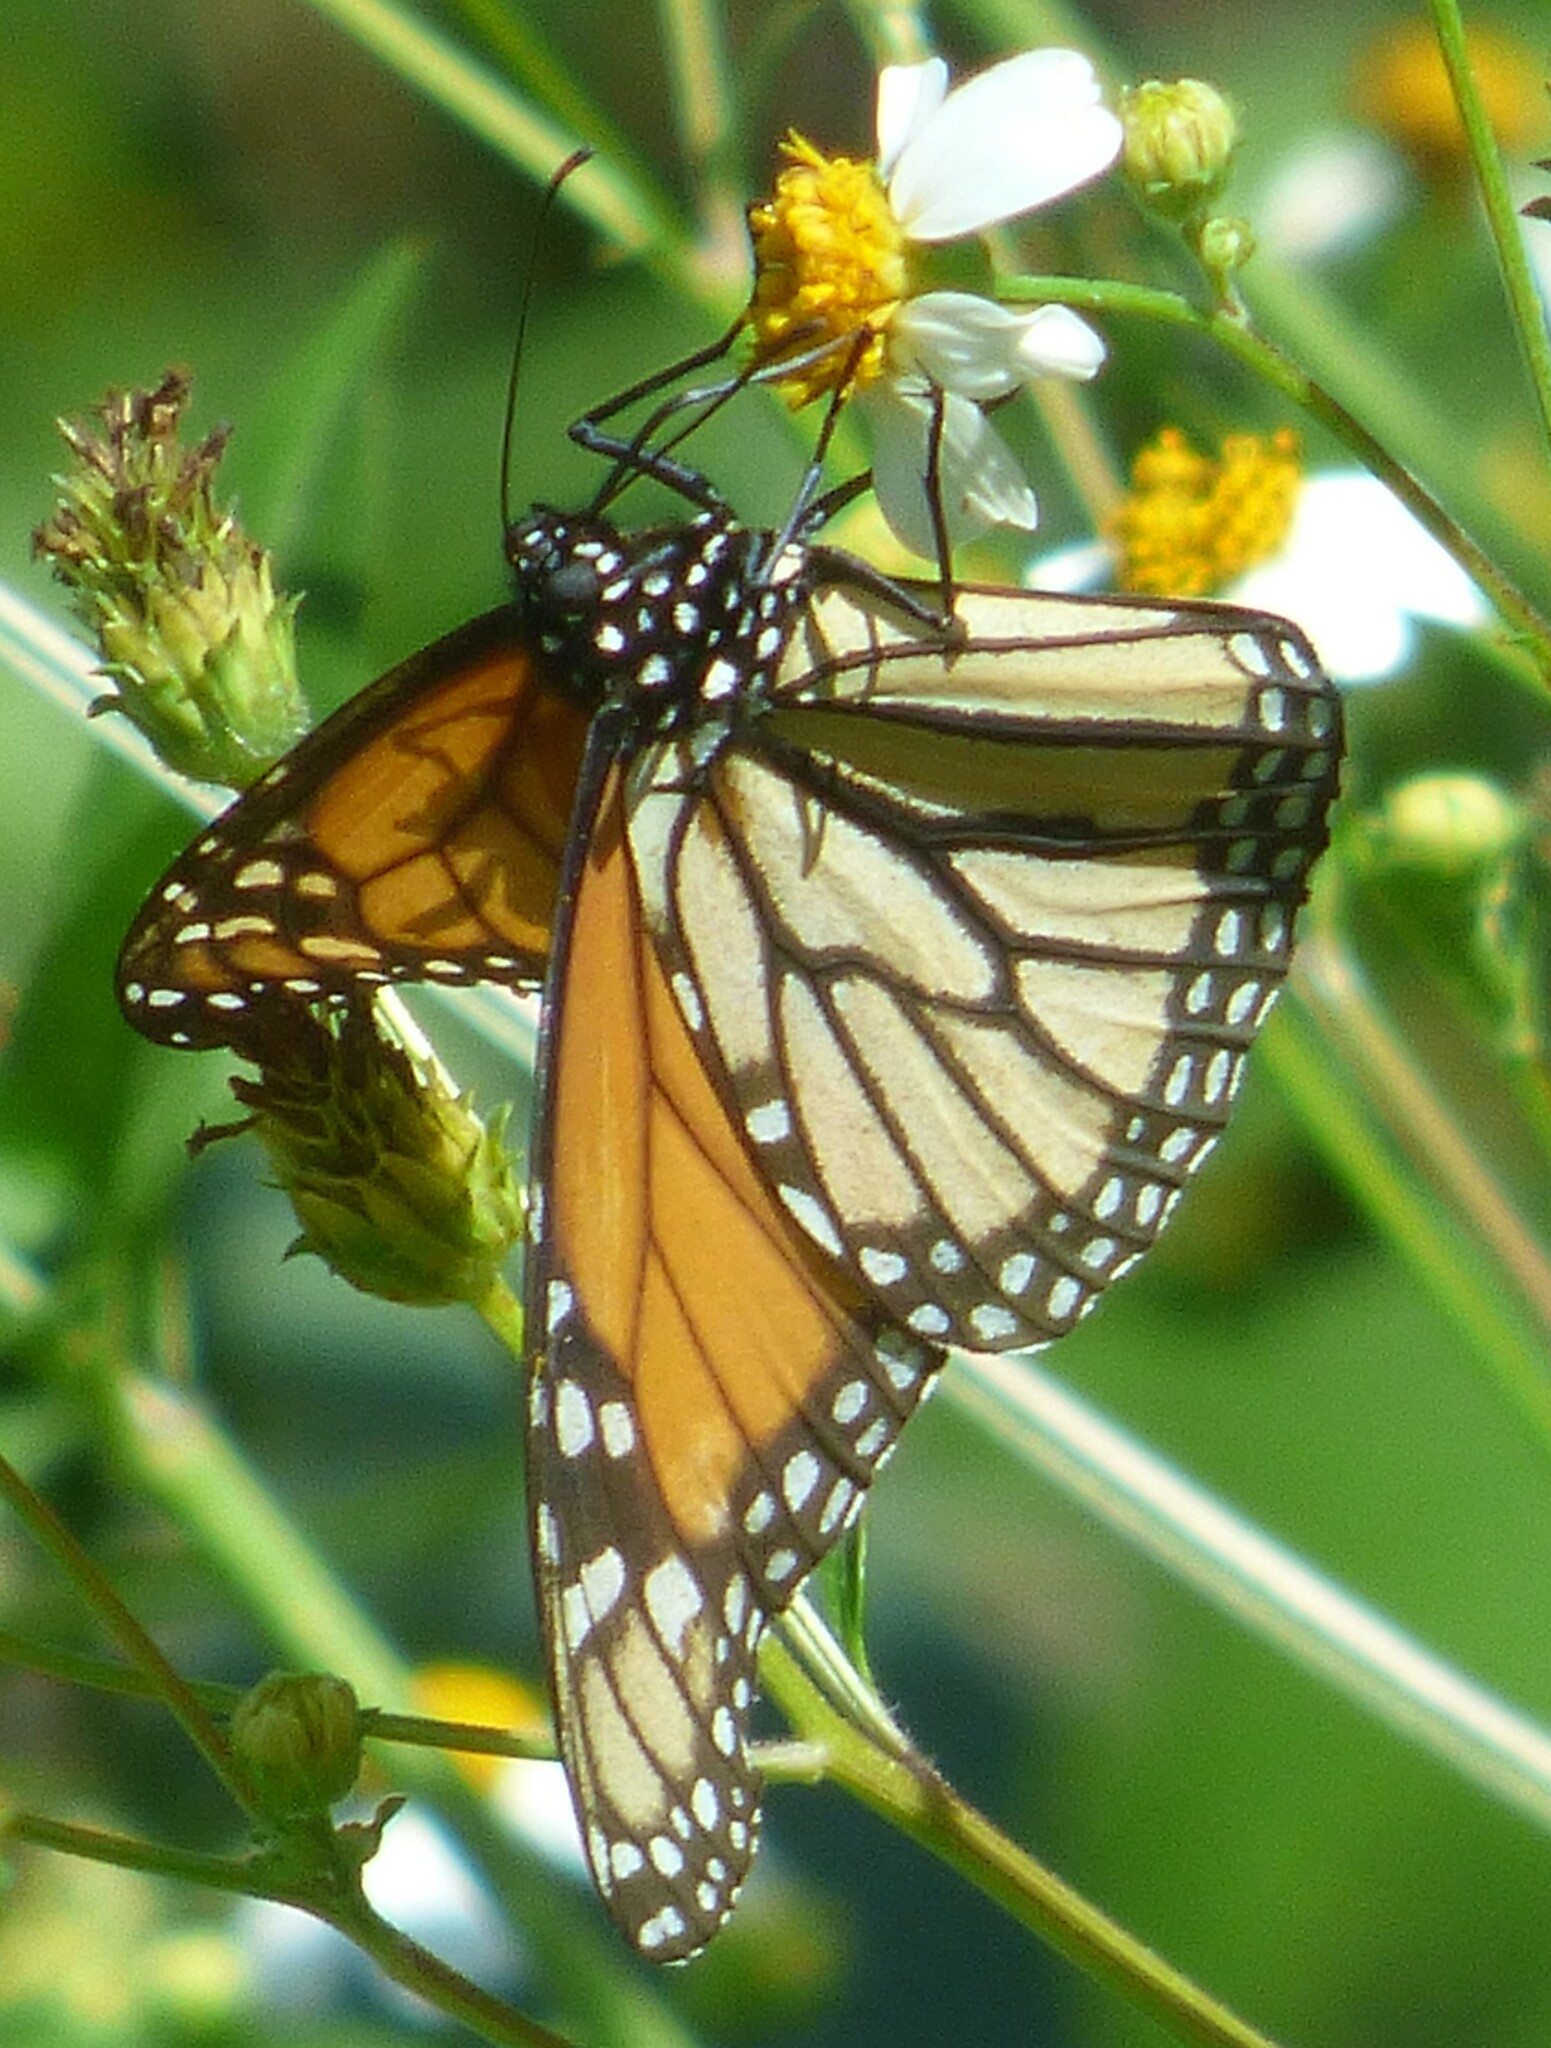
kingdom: Animalia
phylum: Arthropoda
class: Insecta
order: Lepidoptera
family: Nymphalidae
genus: Danaus
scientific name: Danaus plexippus
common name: Monarch
